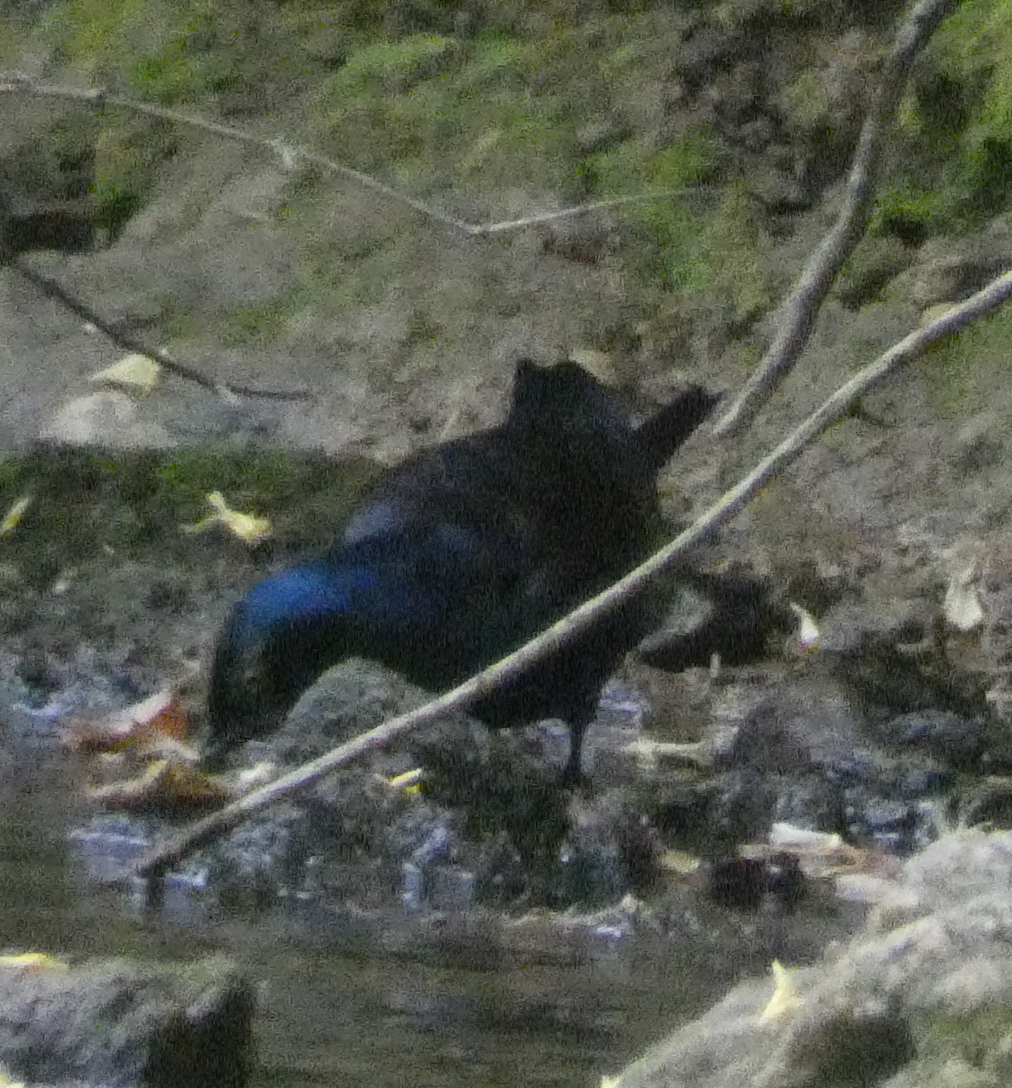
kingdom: Animalia
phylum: Chordata
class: Aves
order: Passeriformes
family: Icteridae
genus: Quiscalus
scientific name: Quiscalus quiscula
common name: Common grackle
